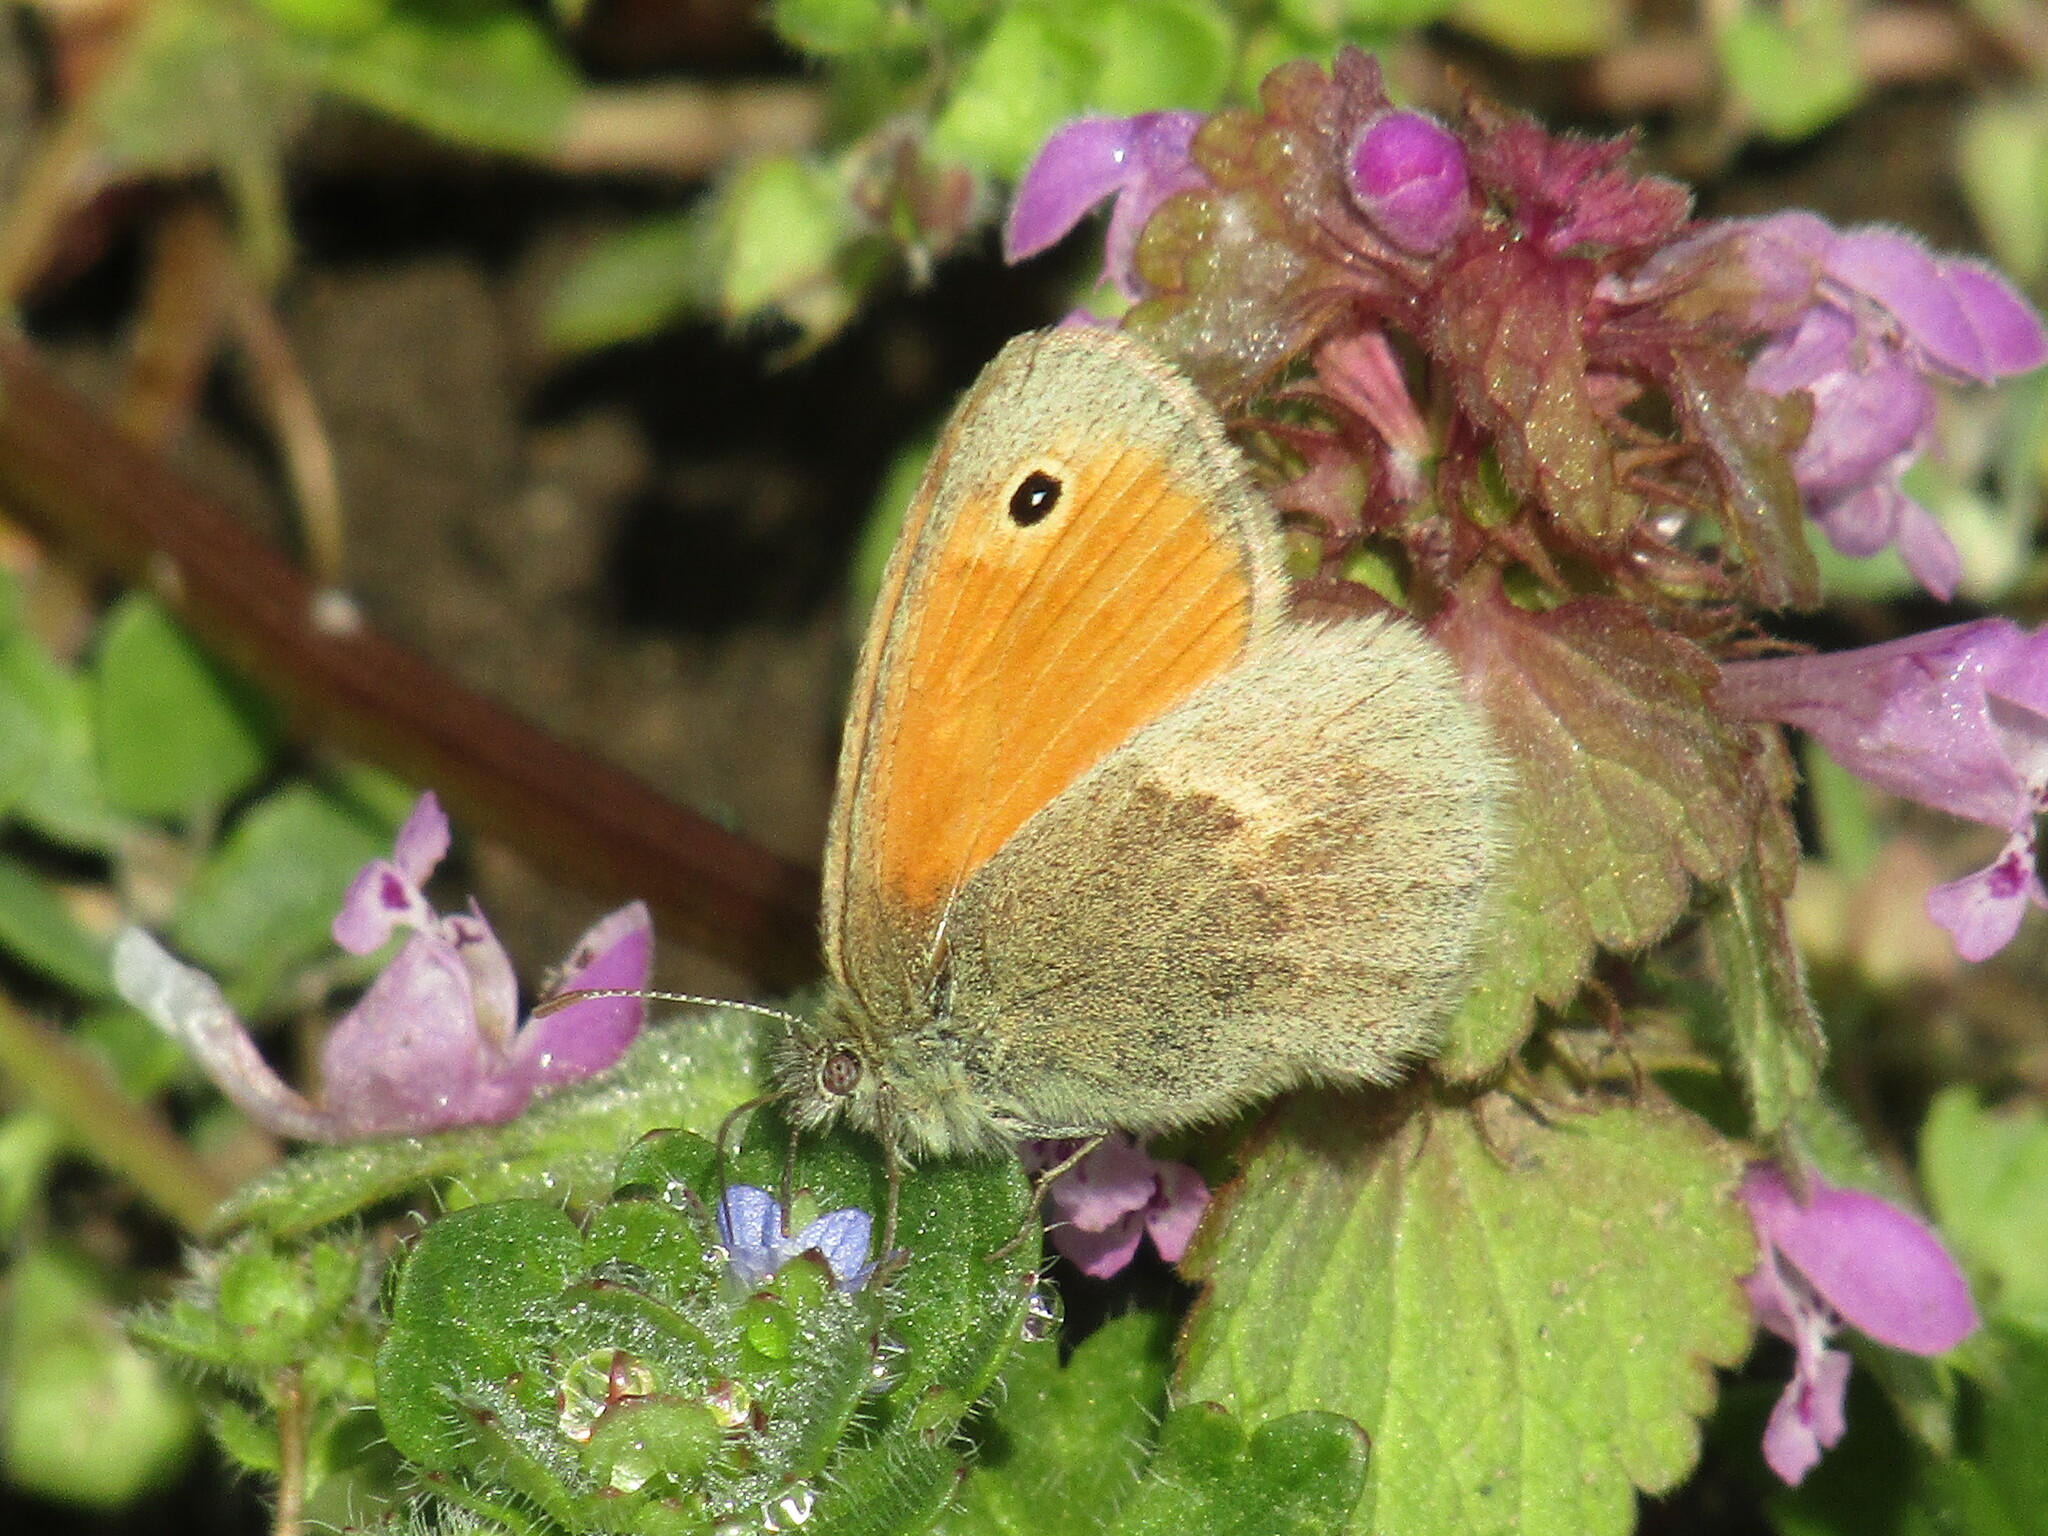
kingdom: Animalia
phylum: Arthropoda
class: Insecta
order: Lepidoptera
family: Nymphalidae
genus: Coenonympha
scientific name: Coenonympha pamphilus
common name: Small heath
